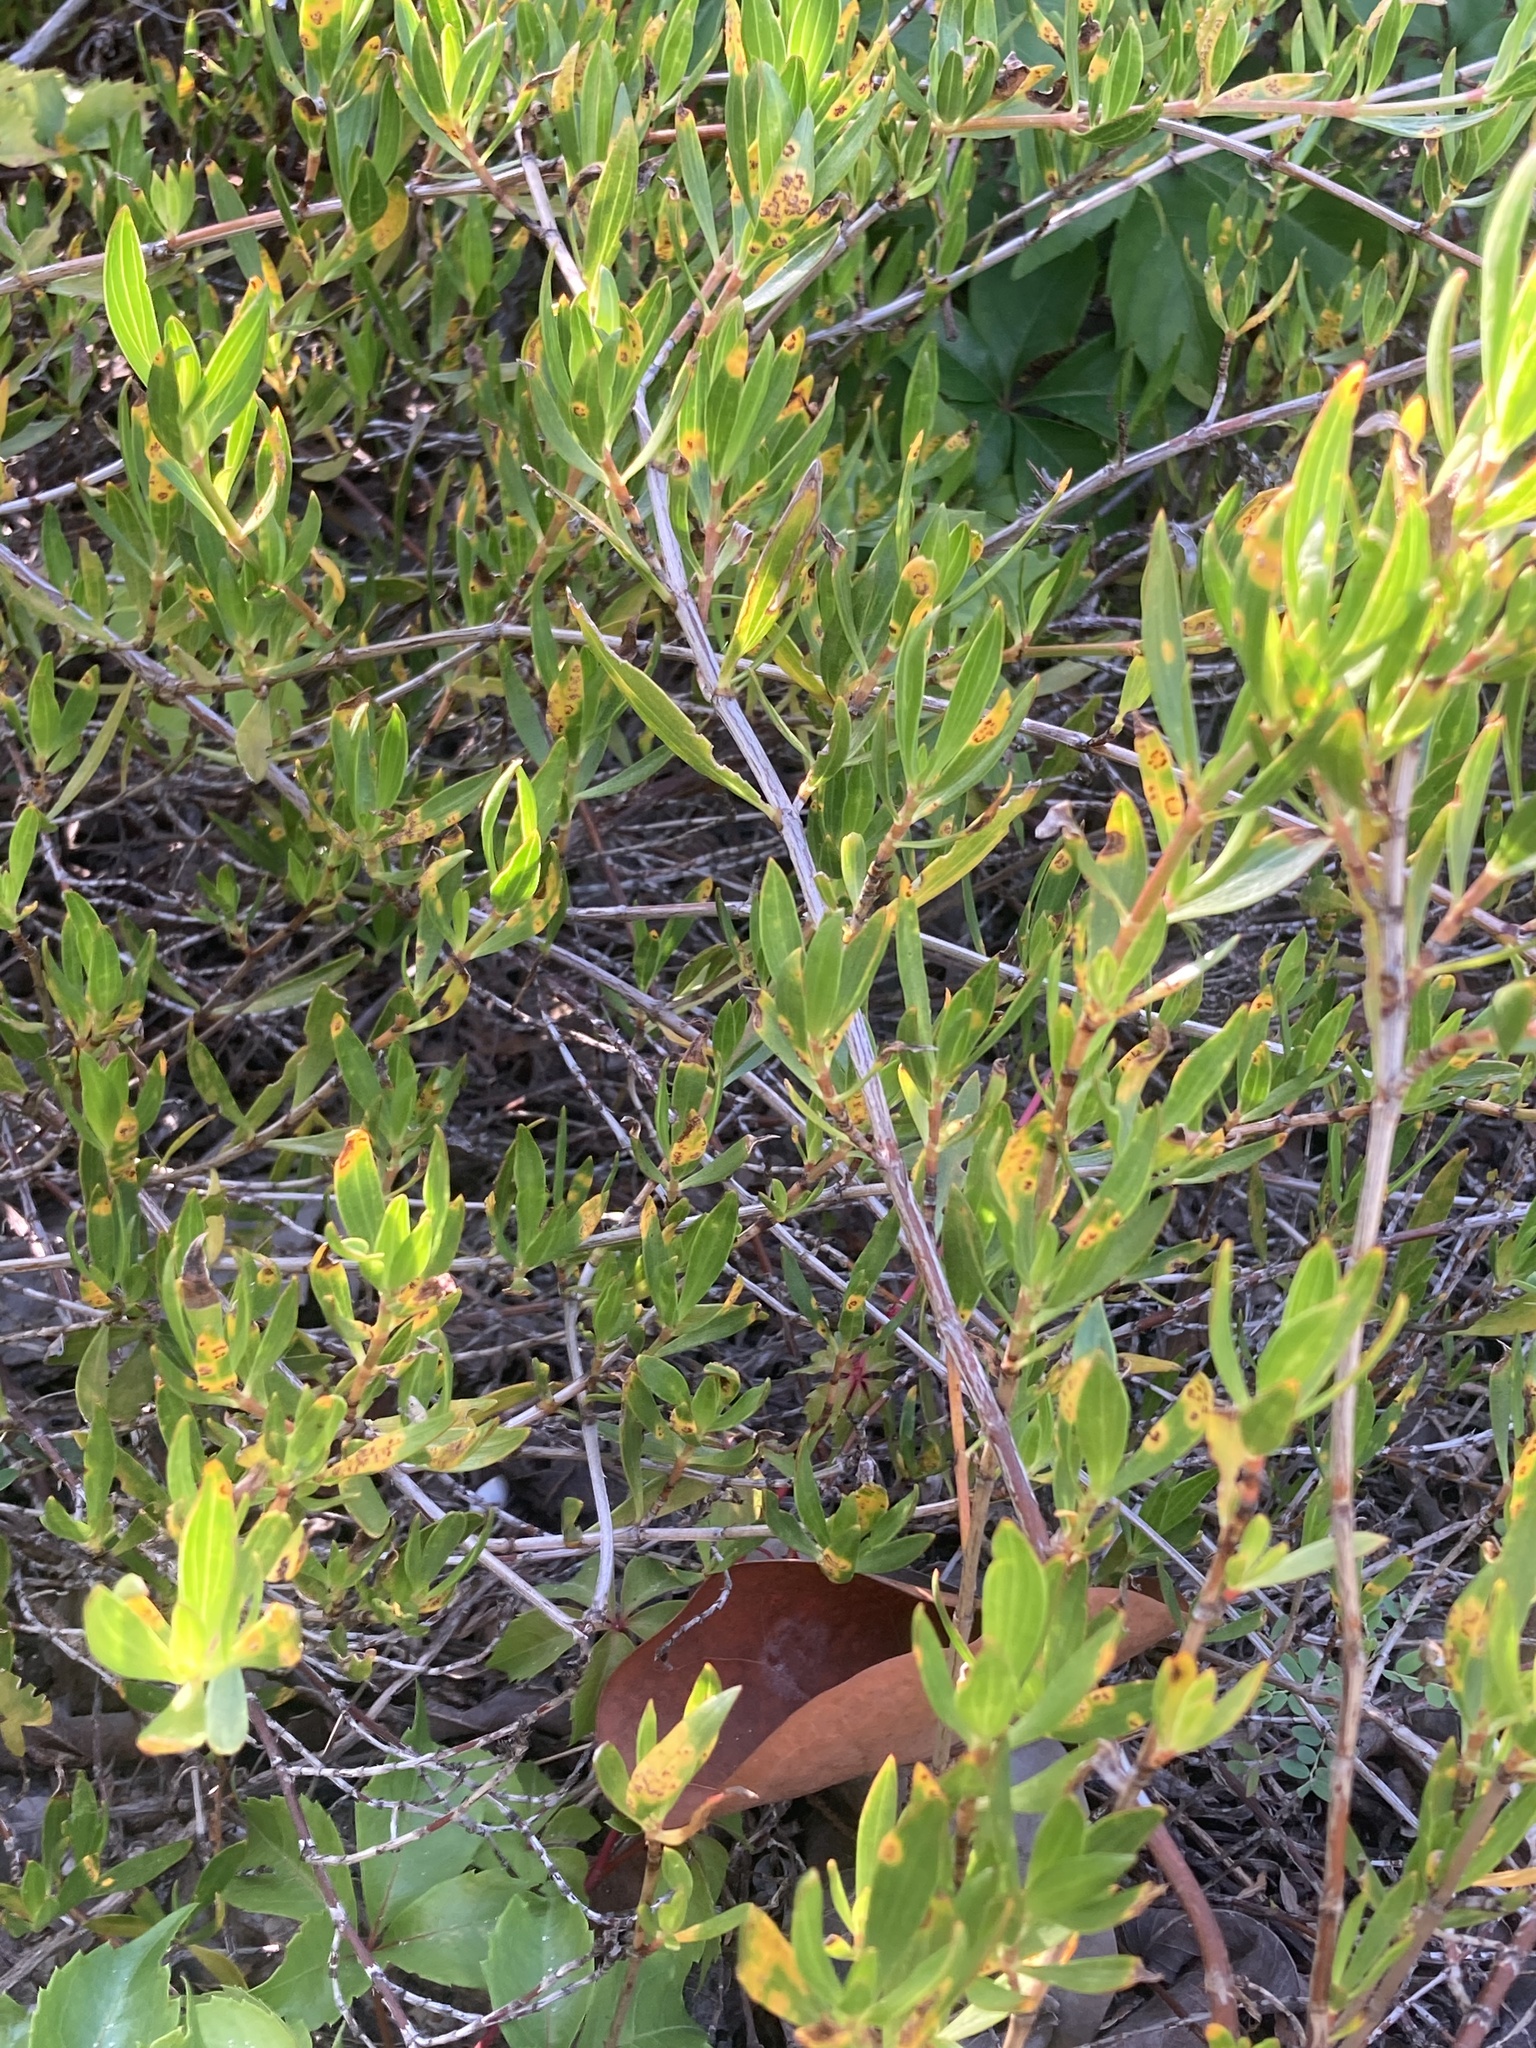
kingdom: Plantae
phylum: Tracheophyta
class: Magnoliopsida
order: Gentianales
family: Rubiaceae
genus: Ernodea
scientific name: Ernodea littoralis
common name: Beach creeper
